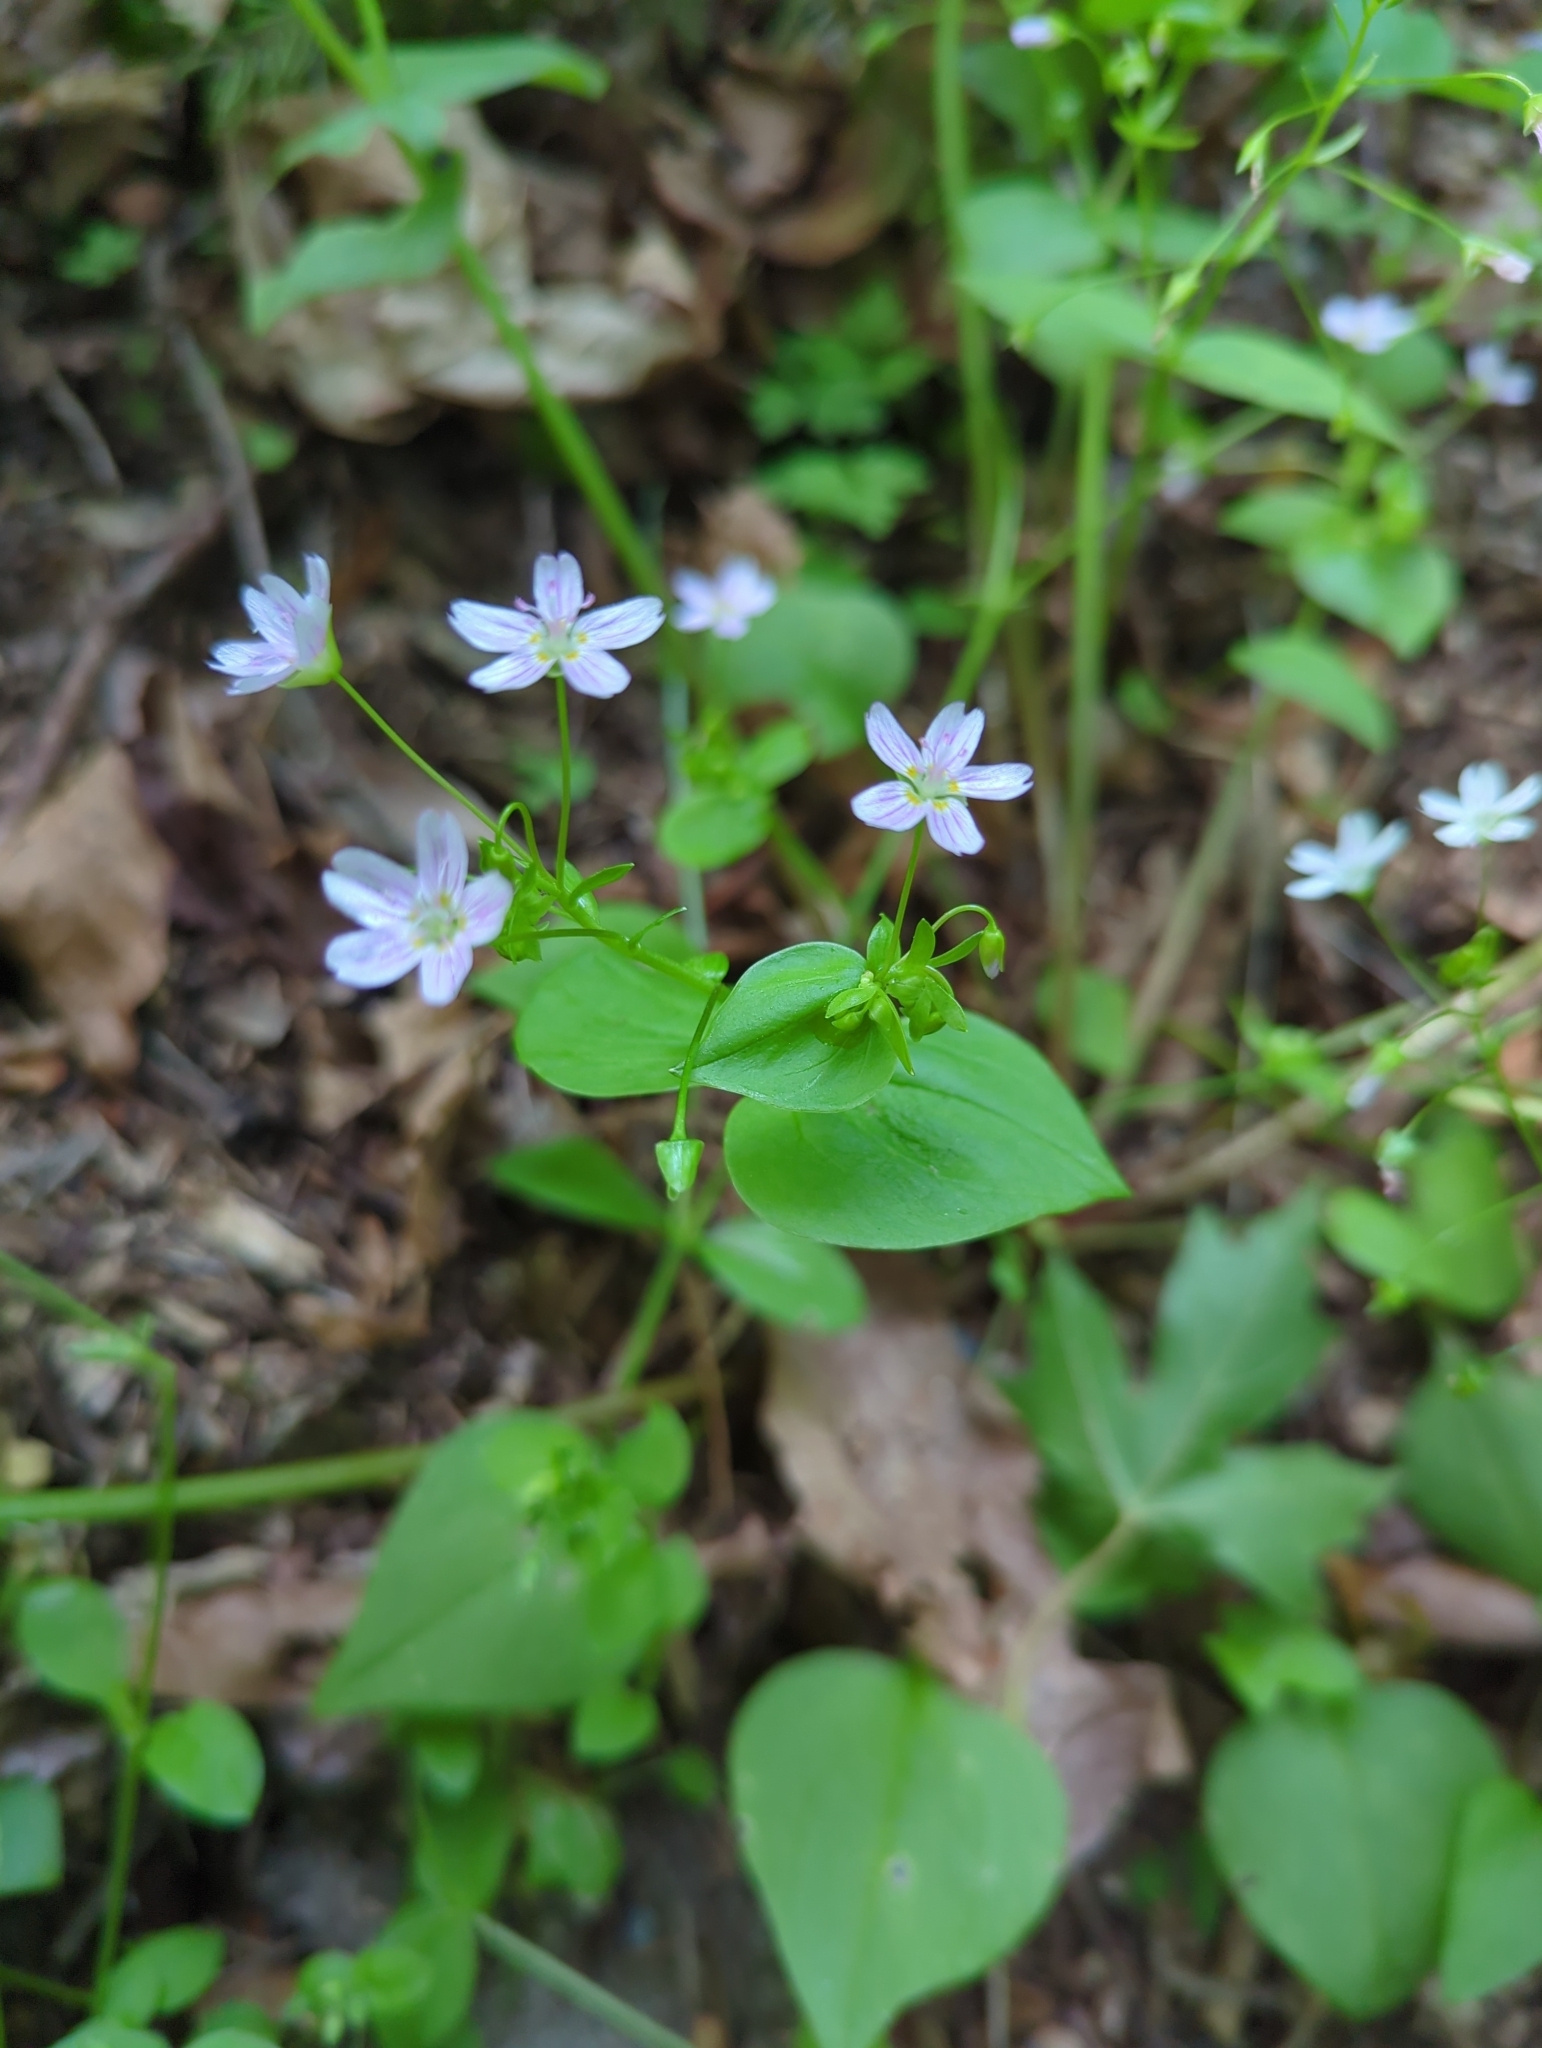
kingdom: Plantae
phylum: Tracheophyta
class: Magnoliopsida
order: Caryophyllales
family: Montiaceae
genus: Claytonia
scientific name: Claytonia sibirica
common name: Pink purslane
